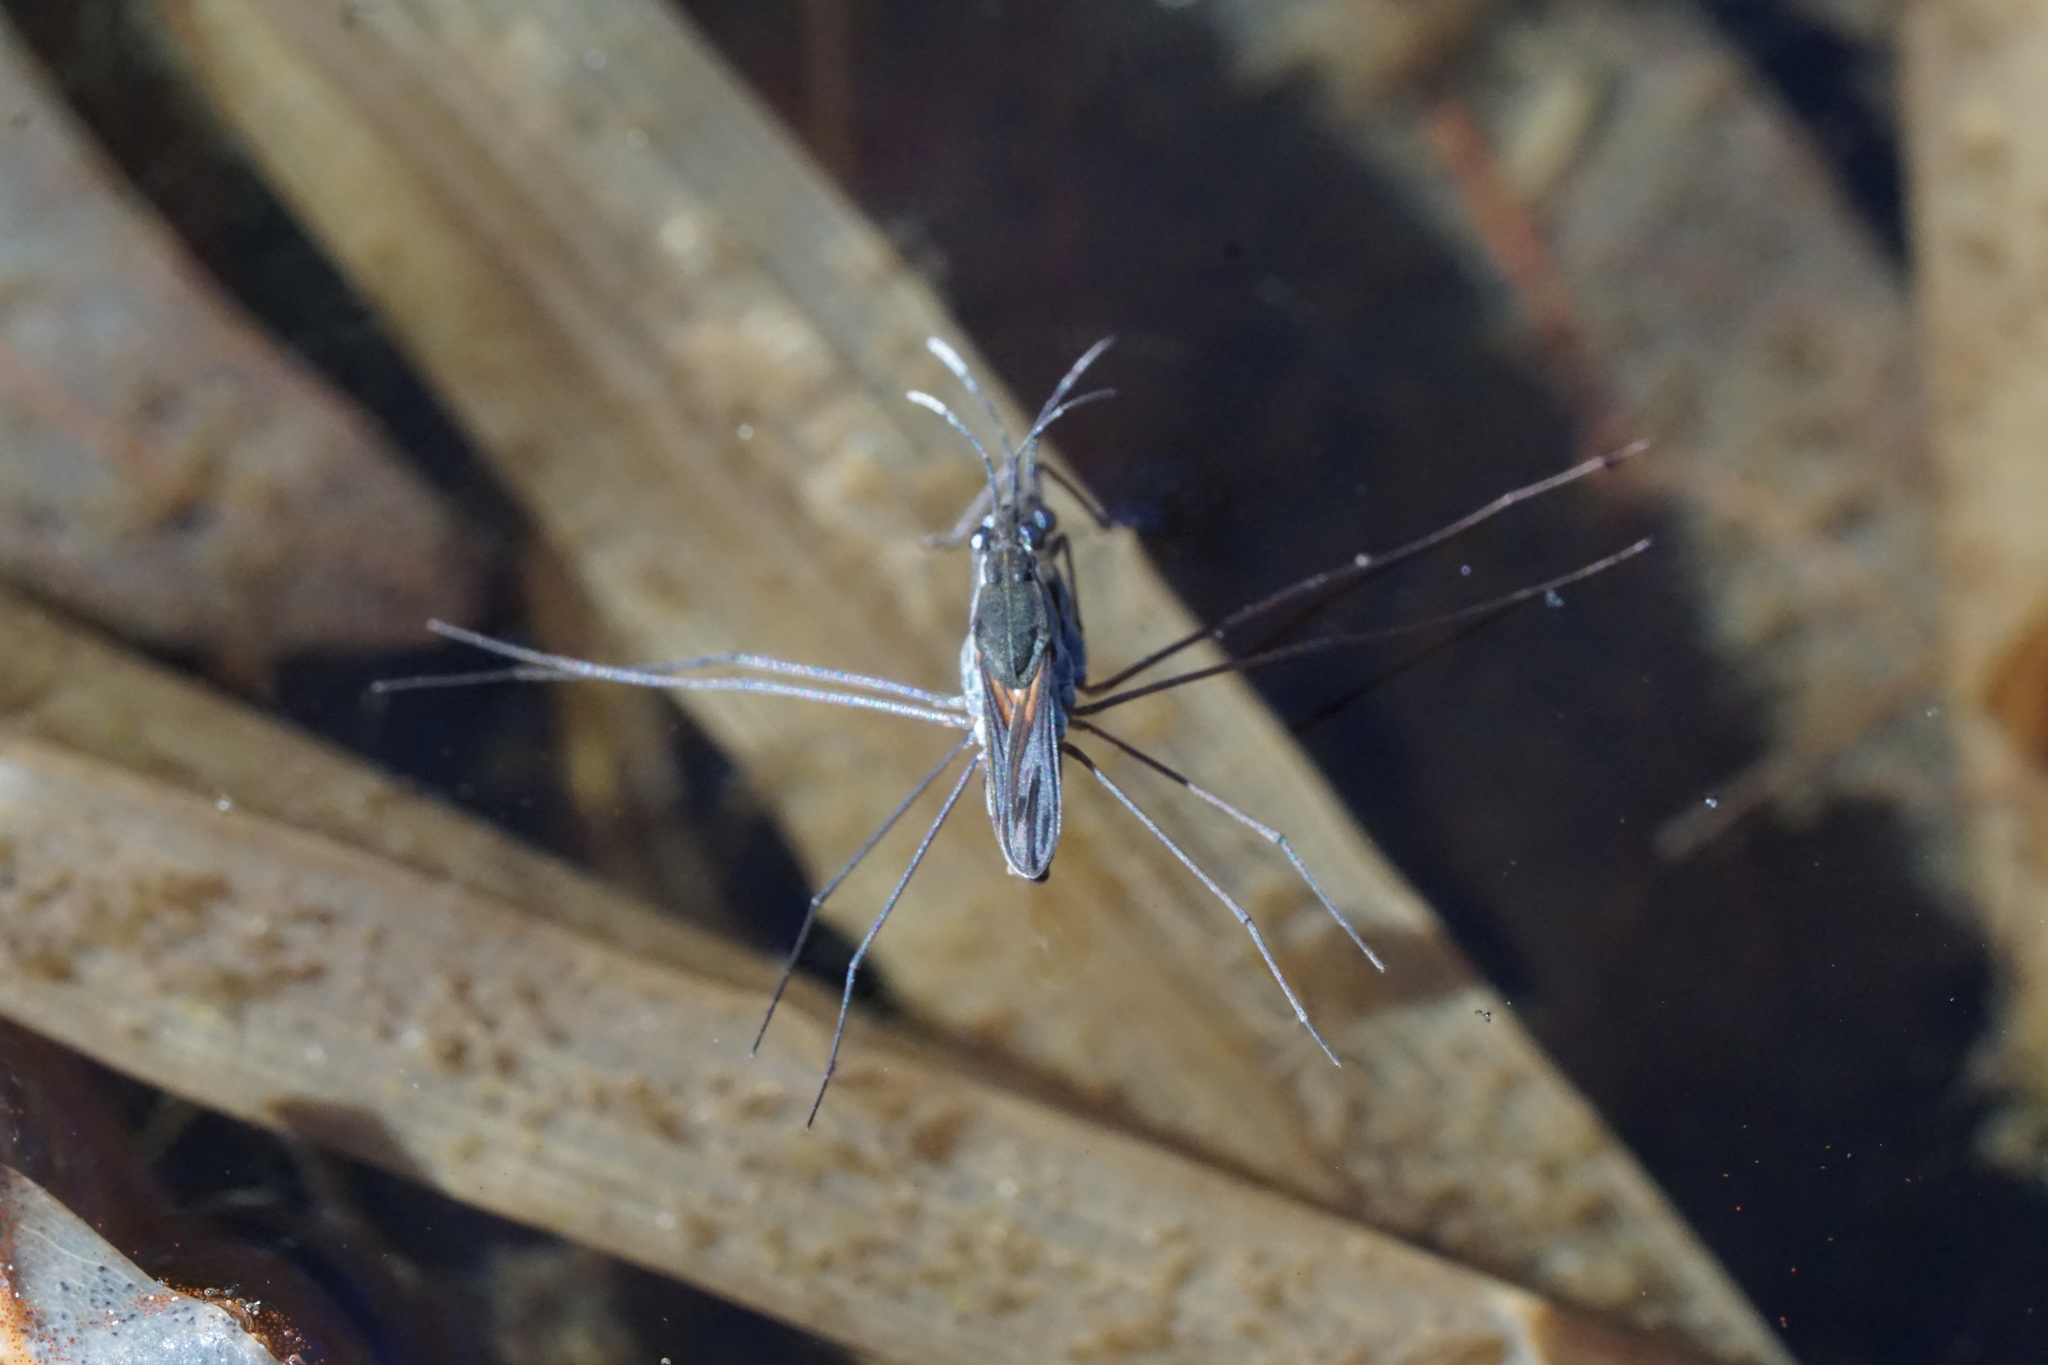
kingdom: Animalia
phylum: Arthropoda
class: Insecta
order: Hemiptera
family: Gerridae
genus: Gerris
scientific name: Gerris
